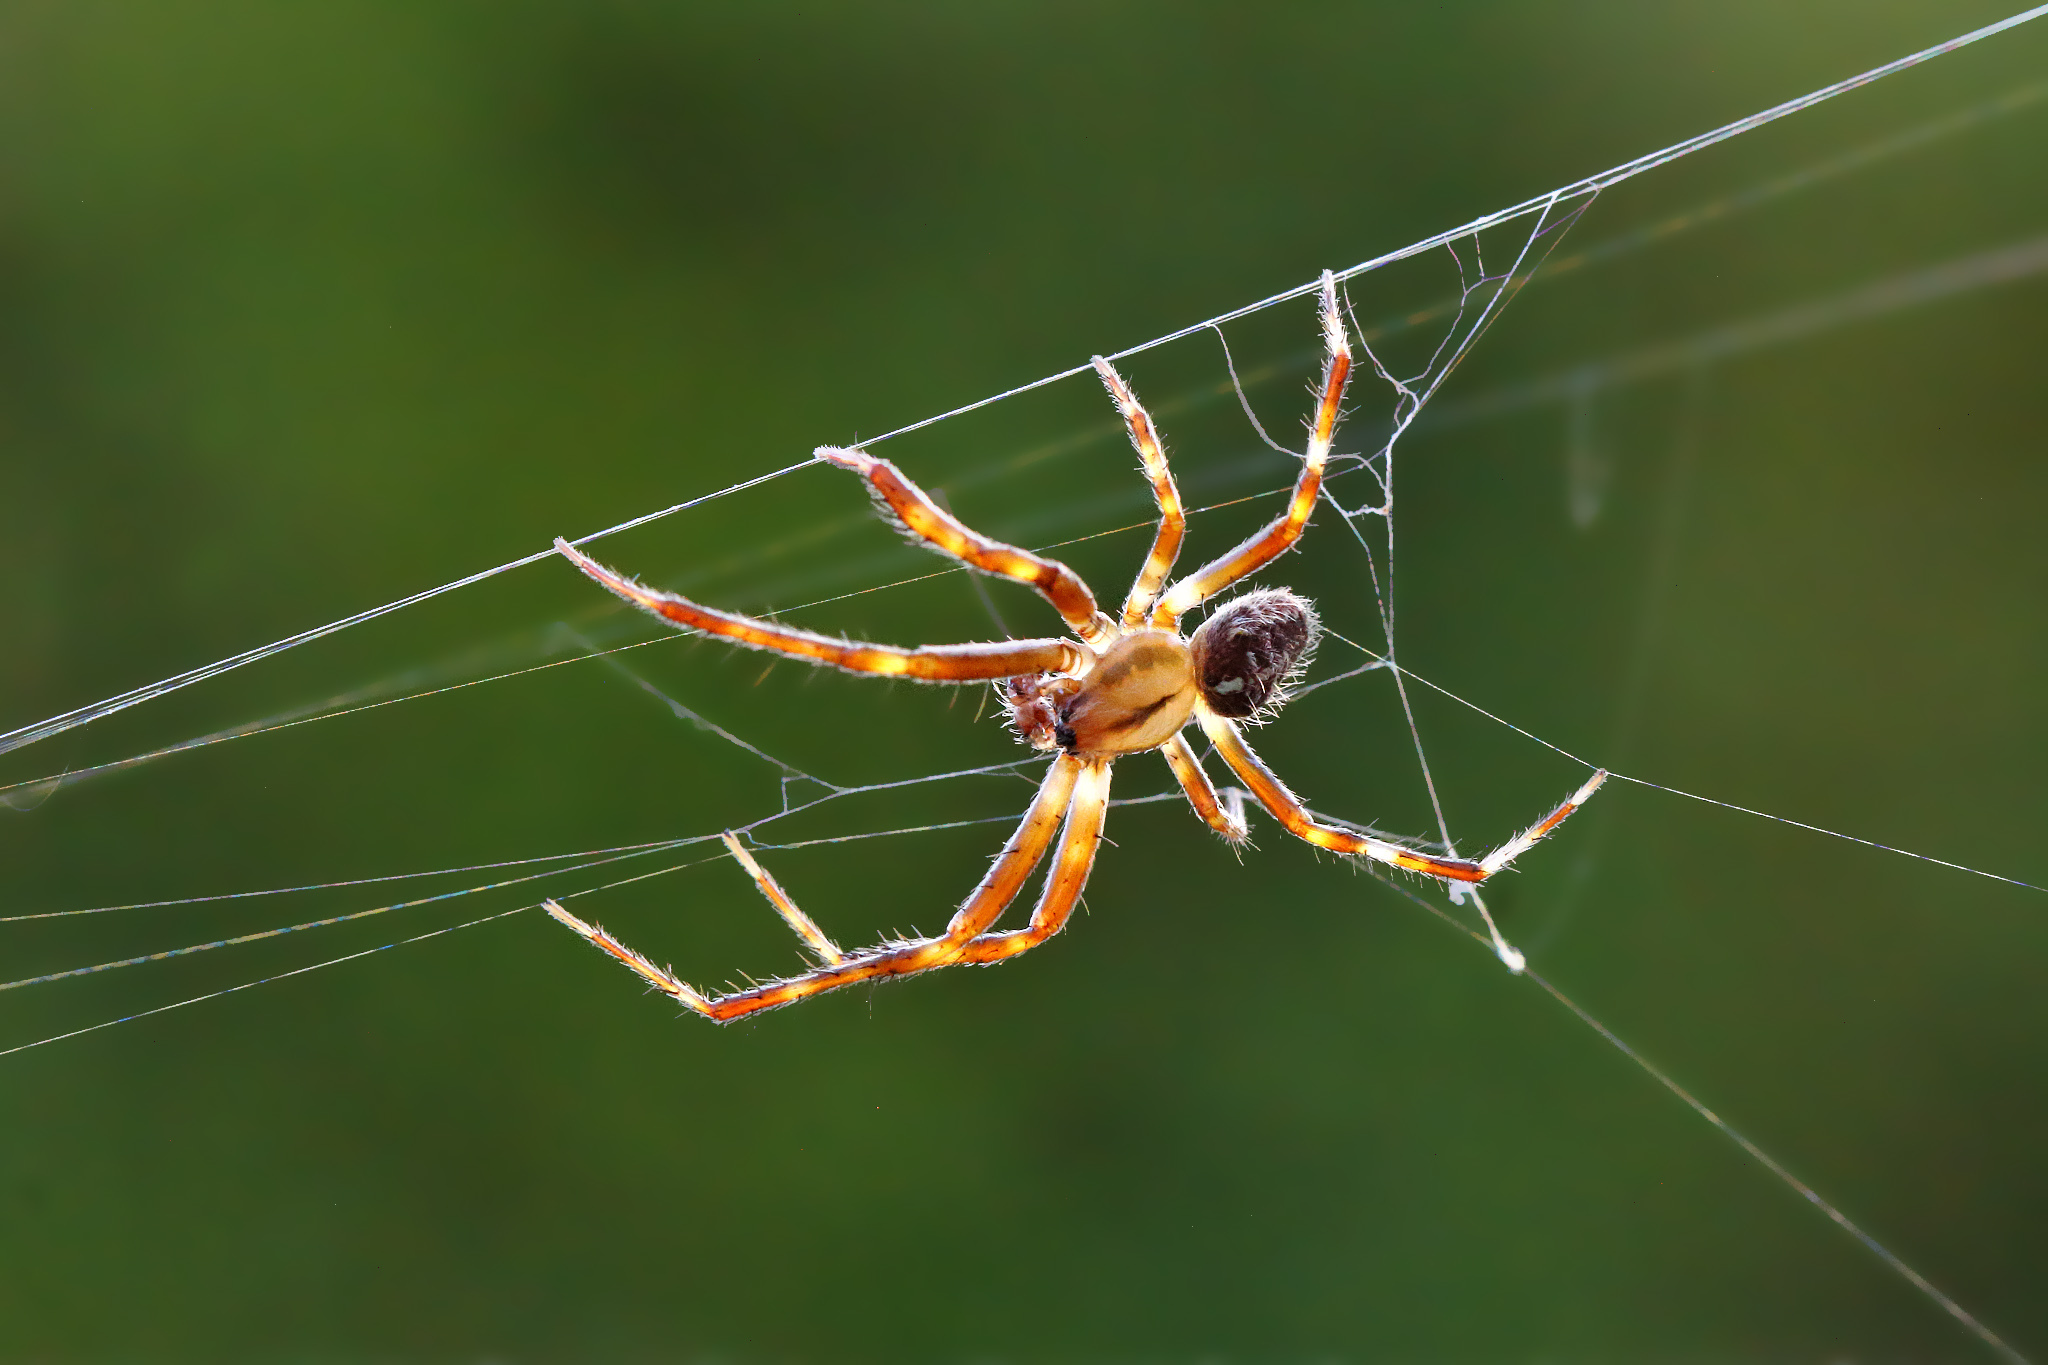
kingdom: Animalia
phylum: Arthropoda
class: Arachnida
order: Araneae
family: Araneidae
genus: Araneus
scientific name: Araneus diadematus
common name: Cross orbweaver
